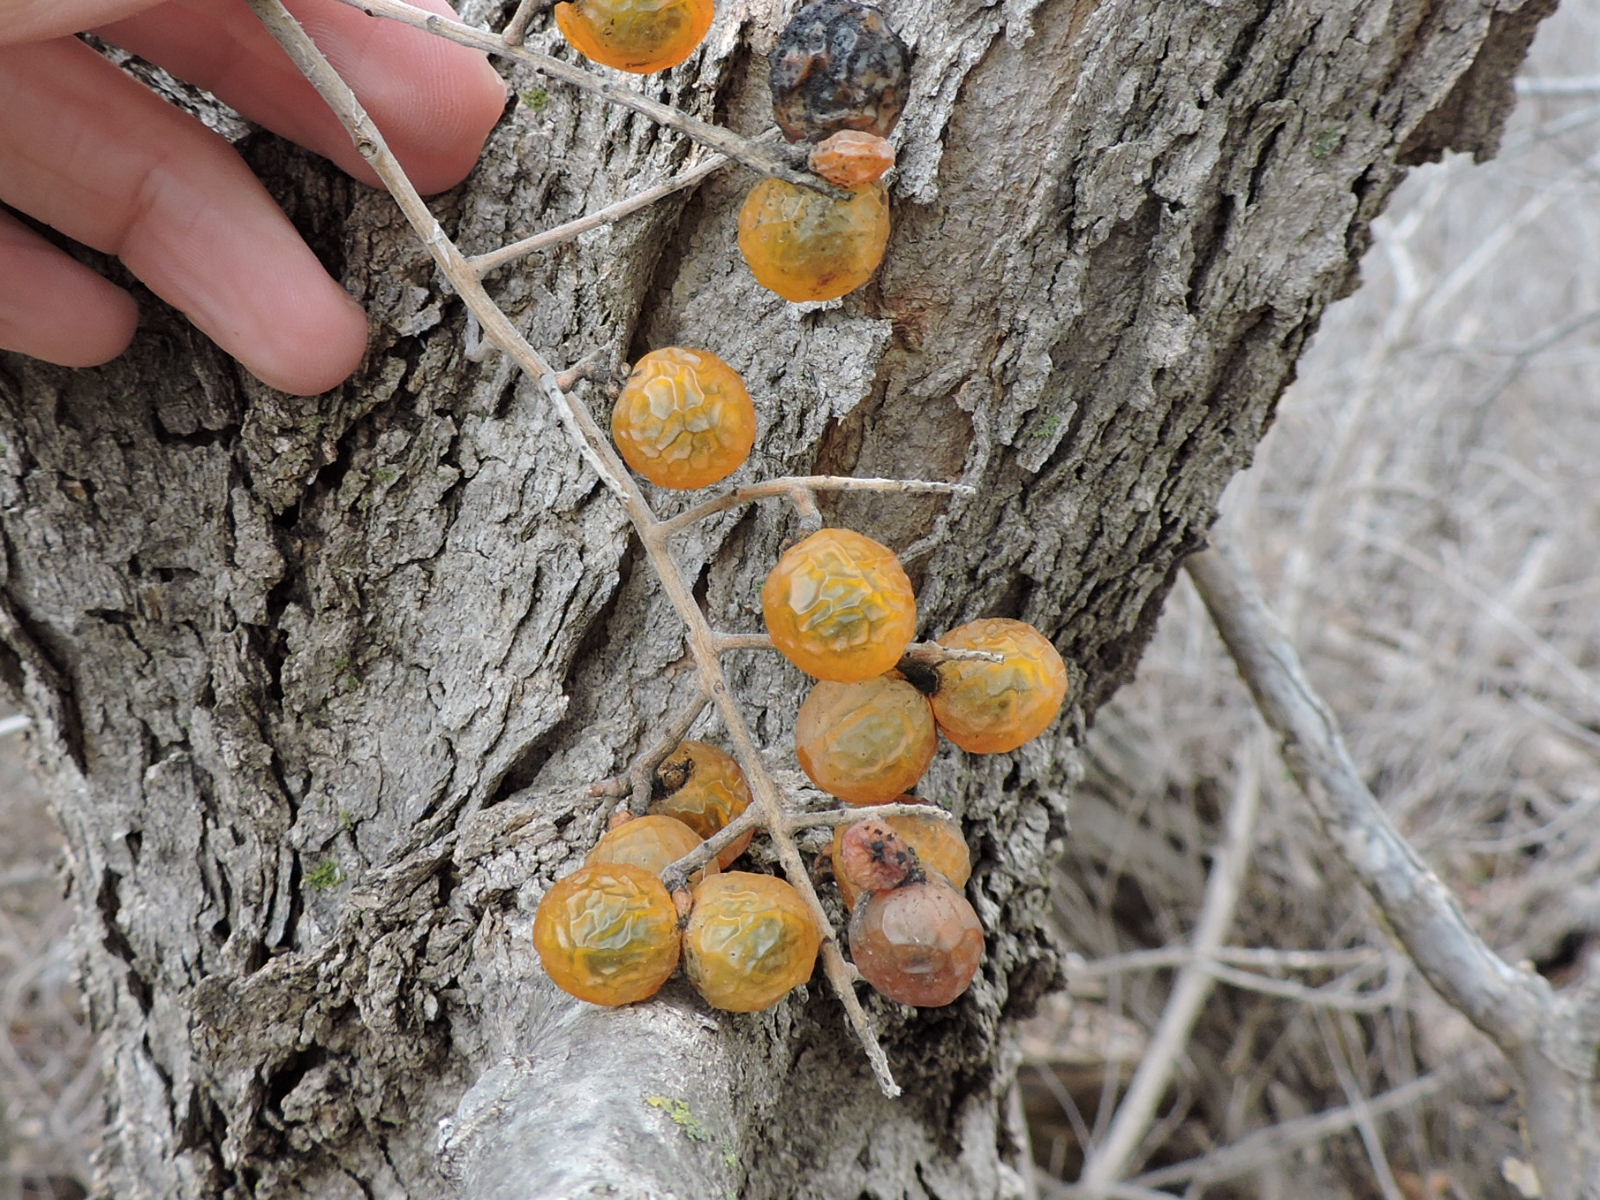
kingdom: Plantae
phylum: Tracheophyta
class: Magnoliopsida
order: Sapindales
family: Sapindaceae
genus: Sapindus
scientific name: Sapindus drummondii
